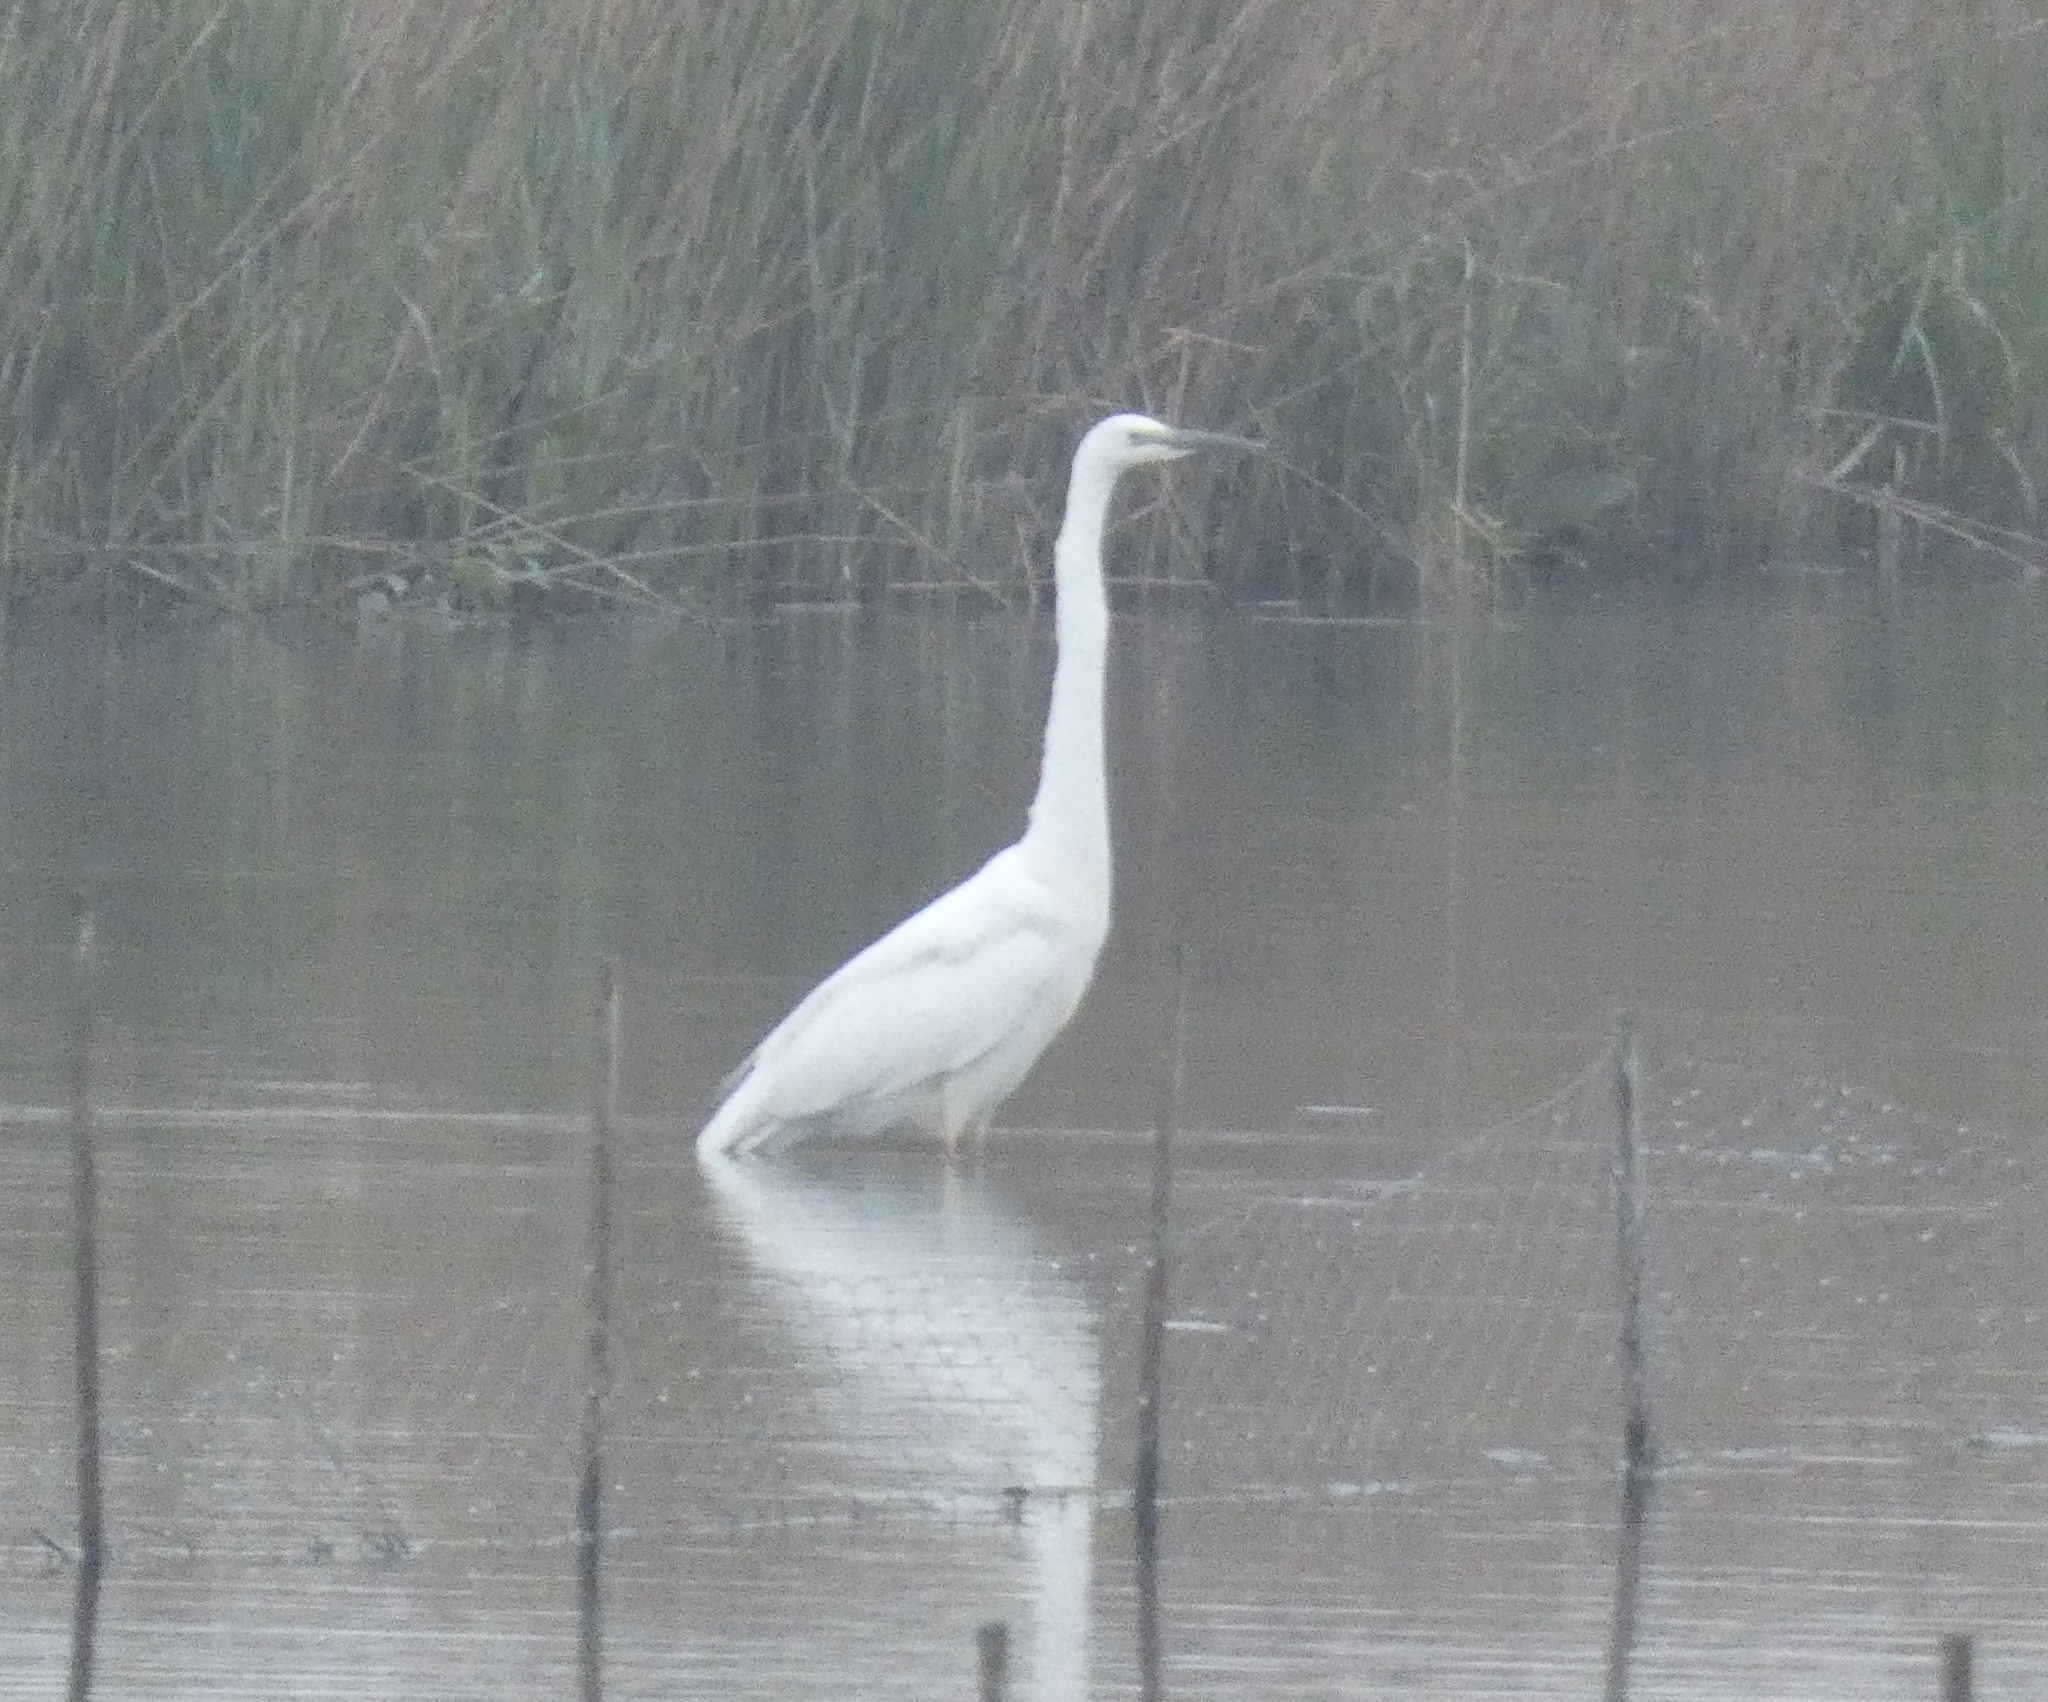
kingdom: Animalia
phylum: Chordata
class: Aves
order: Pelecaniformes
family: Ardeidae
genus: Ardea
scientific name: Ardea alba
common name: Great egret
